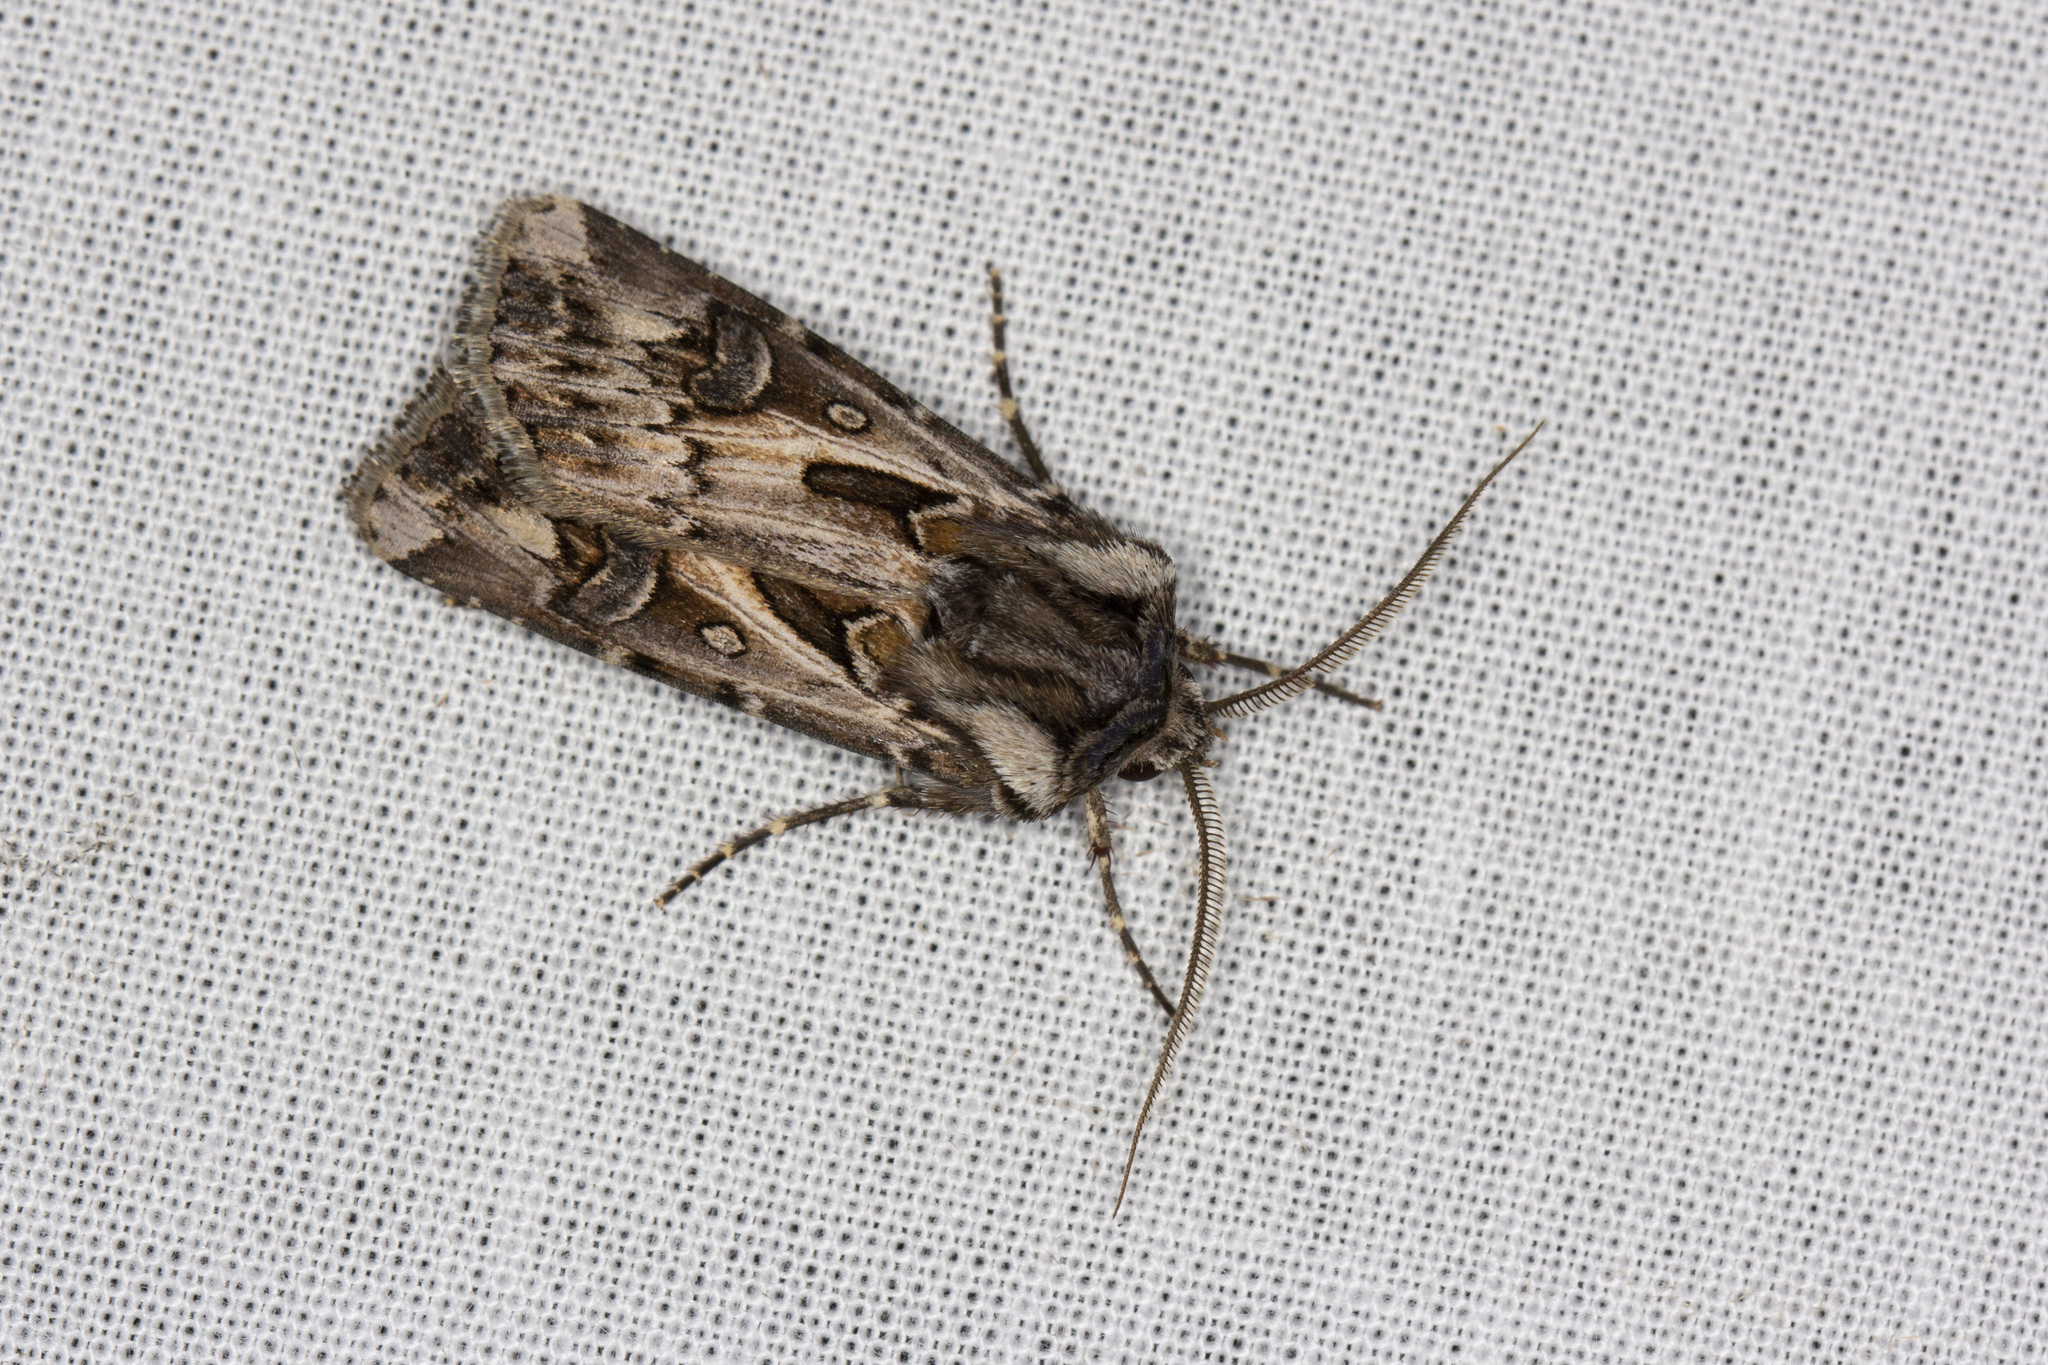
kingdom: Animalia
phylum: Arthropoda
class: Insecta
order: Lepidoptera
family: Noctuidae
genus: Agrotis
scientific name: Agrotis vestigialis
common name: Archer's dart
